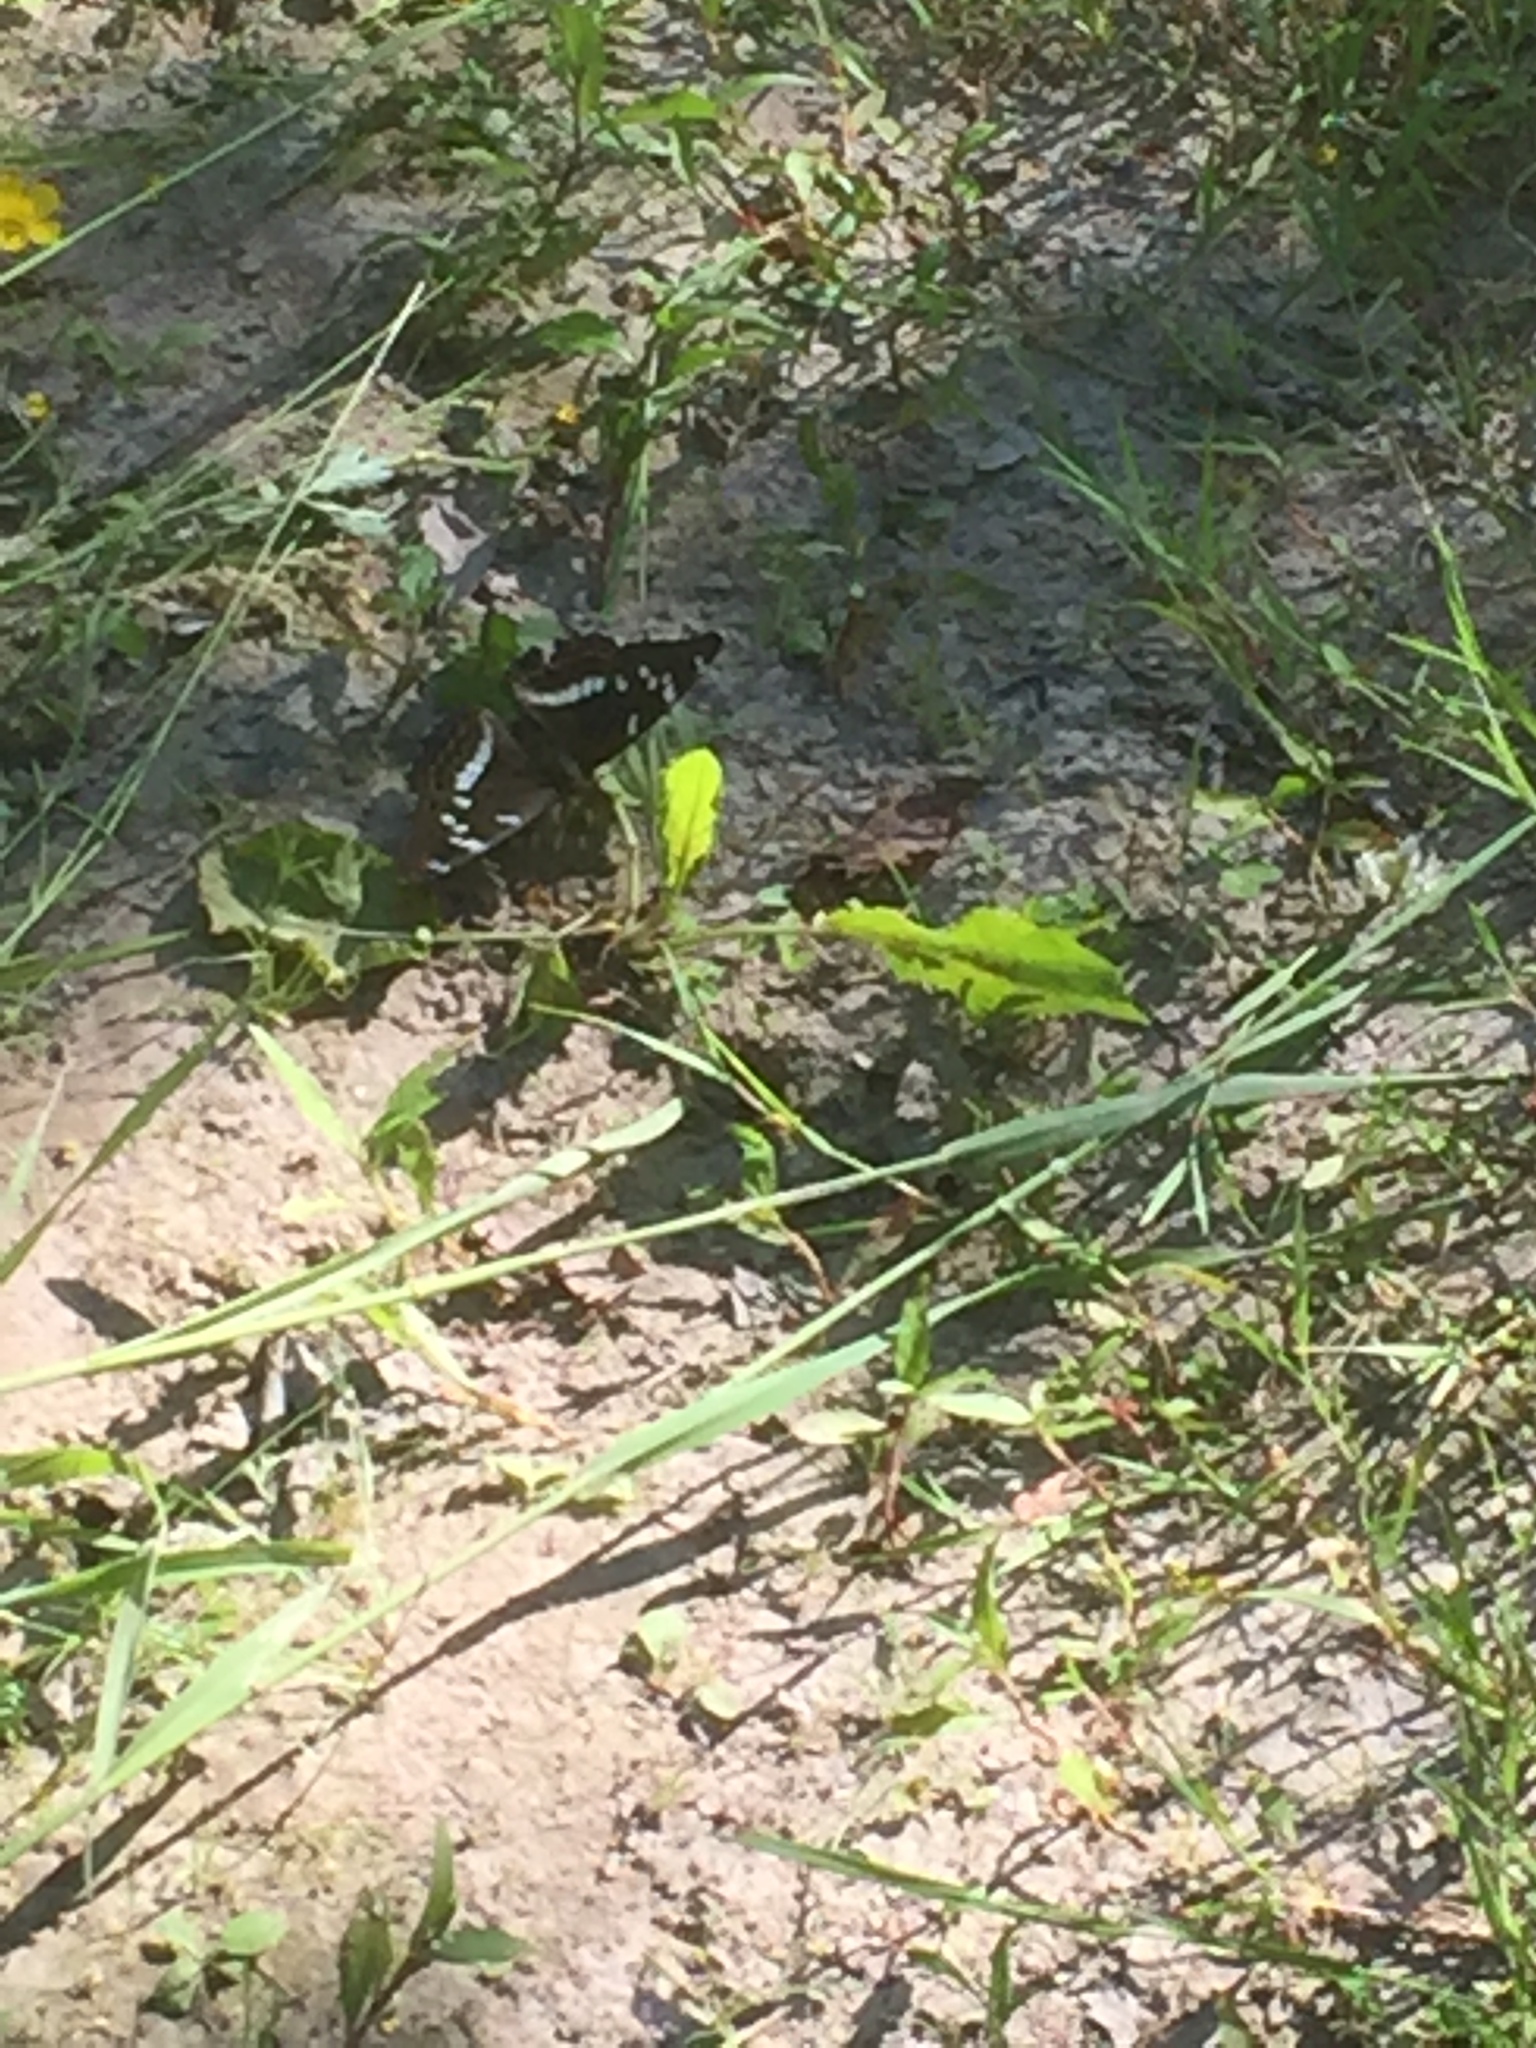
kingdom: Animalia
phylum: Arthropoda
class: Insecta
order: Lepidoptera
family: Nymphalidae
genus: Limenitis
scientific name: Limenitis populi
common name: Poplar admiral
